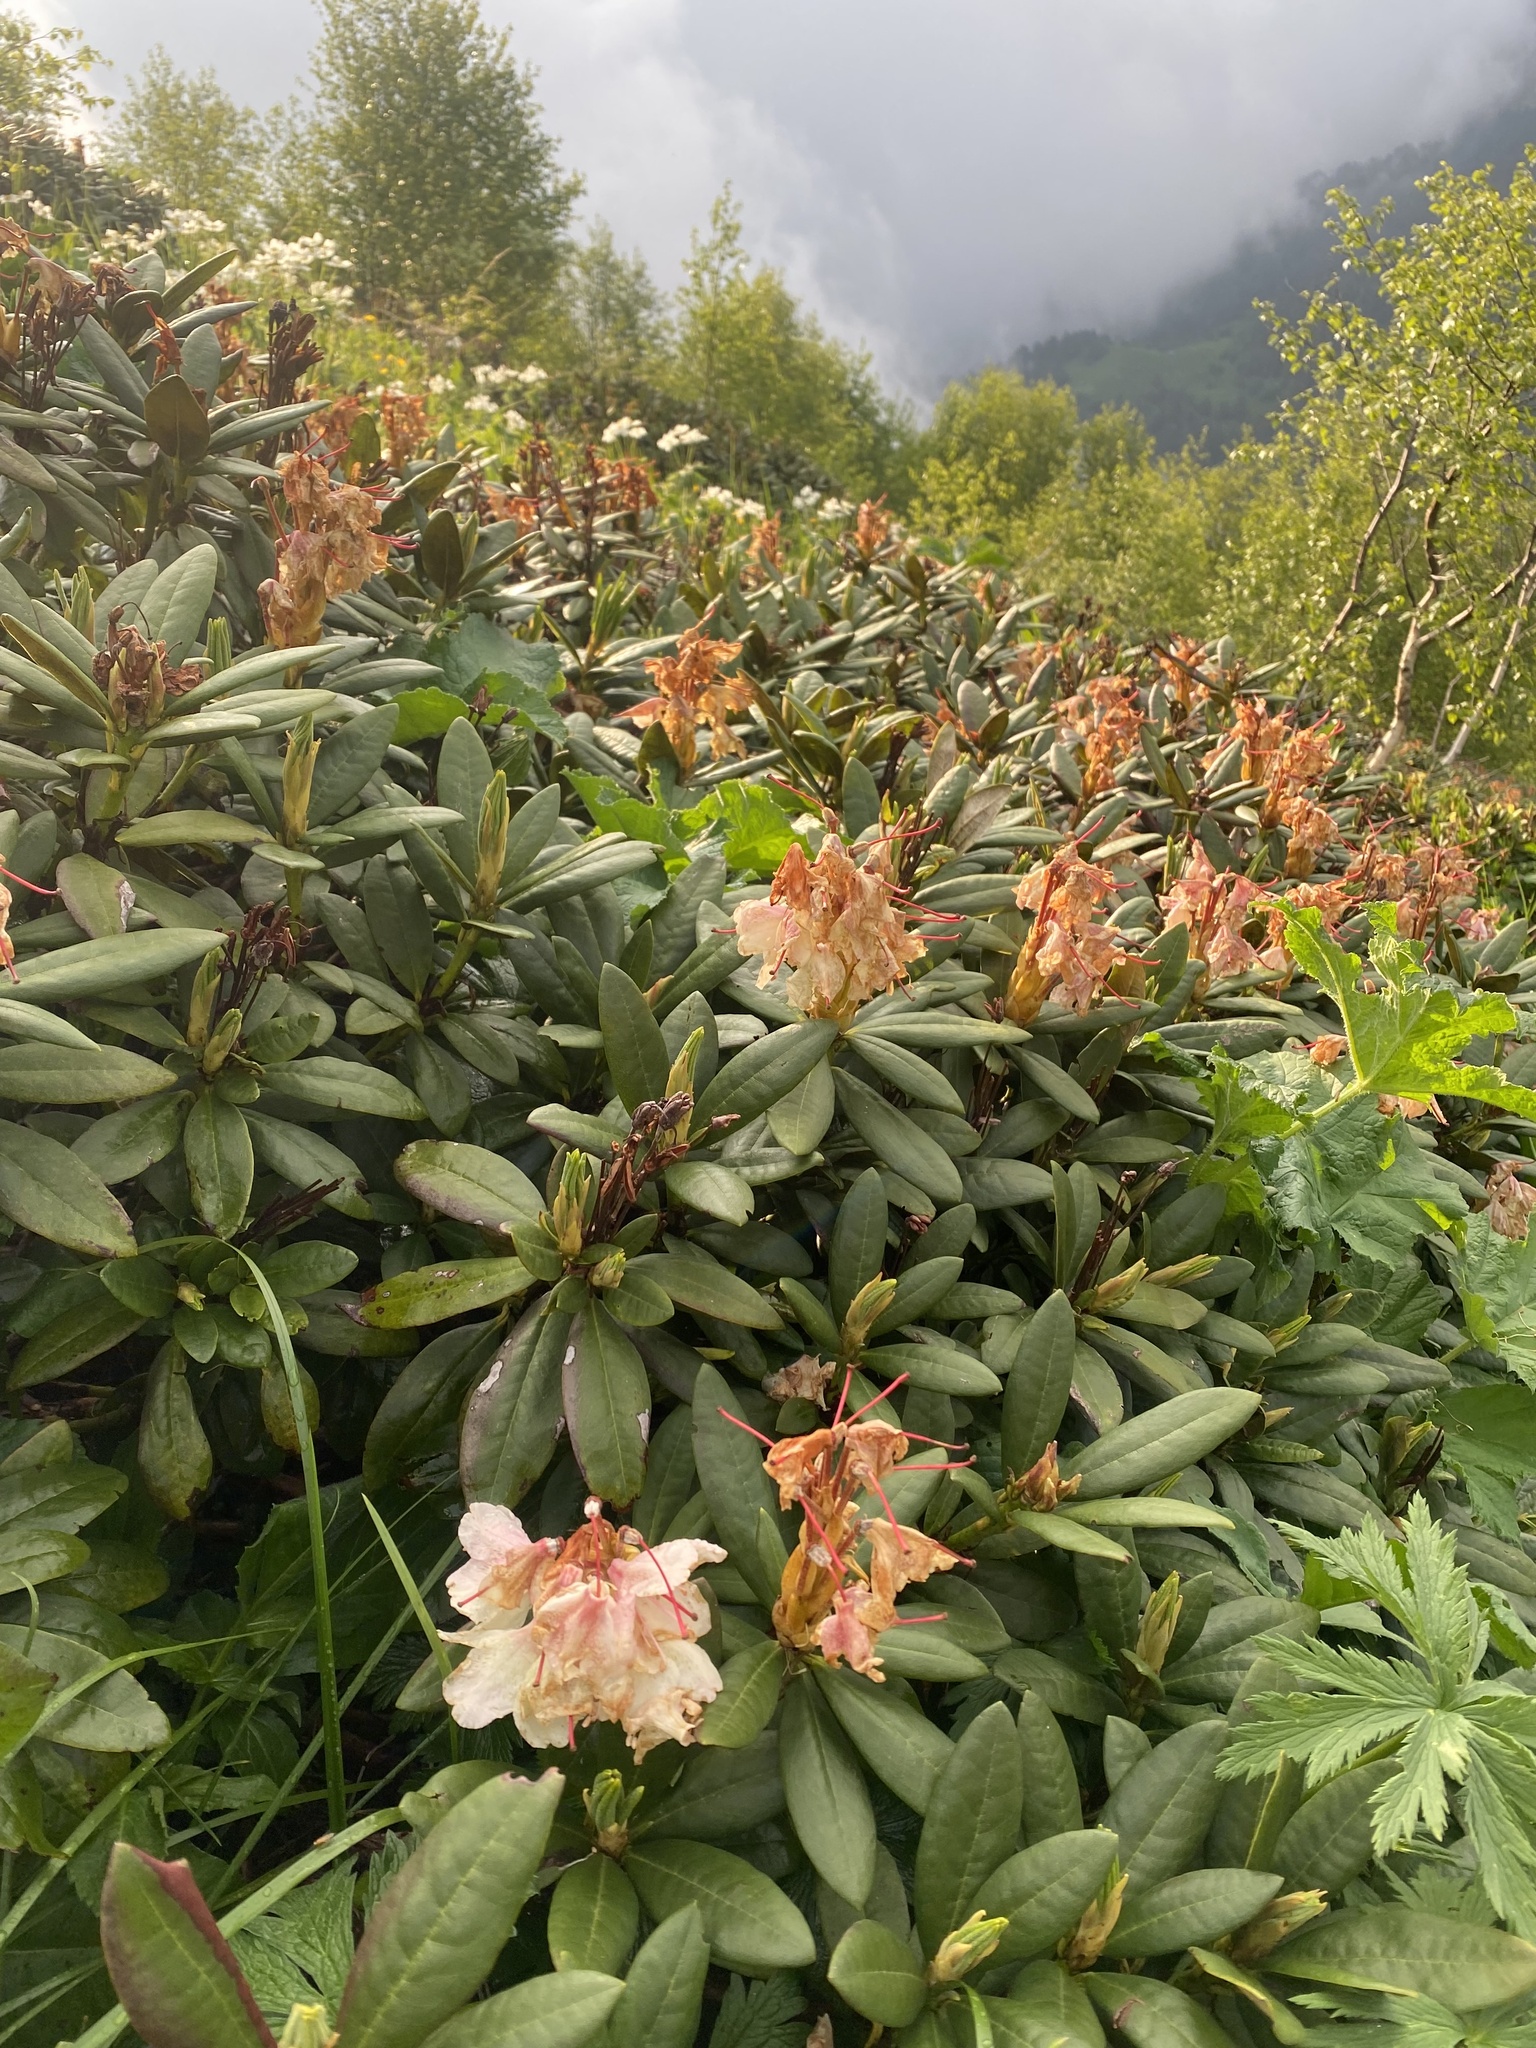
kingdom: Plantae
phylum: Tracheophyta
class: Magnoliopsida
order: Ericales
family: Ericaceae
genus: Rhododendron
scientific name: Rhododendron caucasicum
